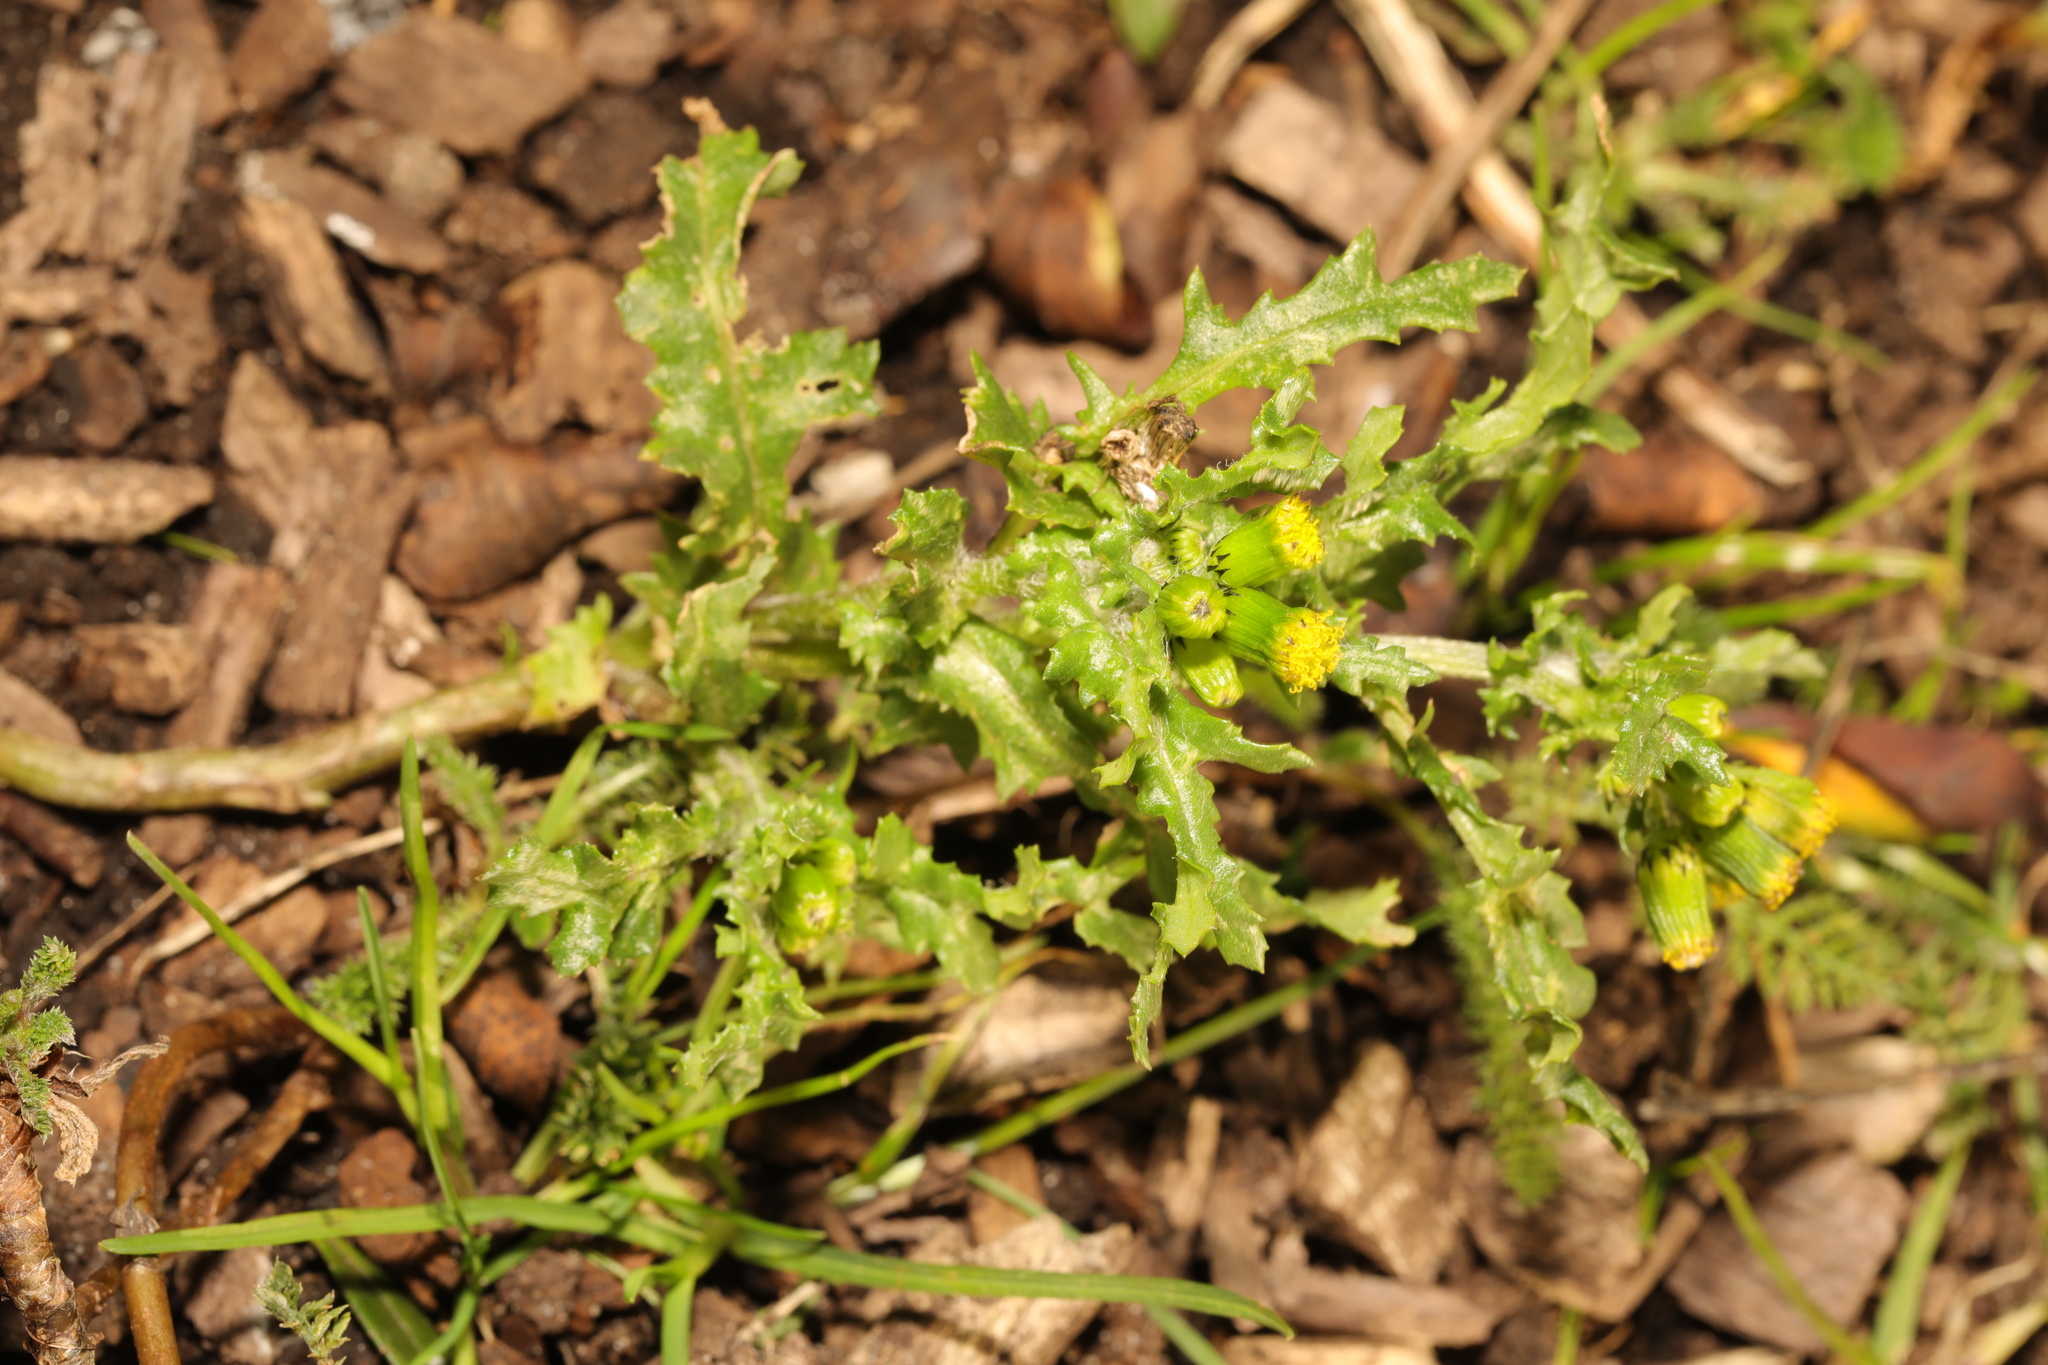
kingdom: Plantae
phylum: Tracheophyta
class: Magnoliopsida
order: Asterales
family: Asteraceae
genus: Senecio
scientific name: Senecio vulgaris
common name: Old-man-in-the-spring
